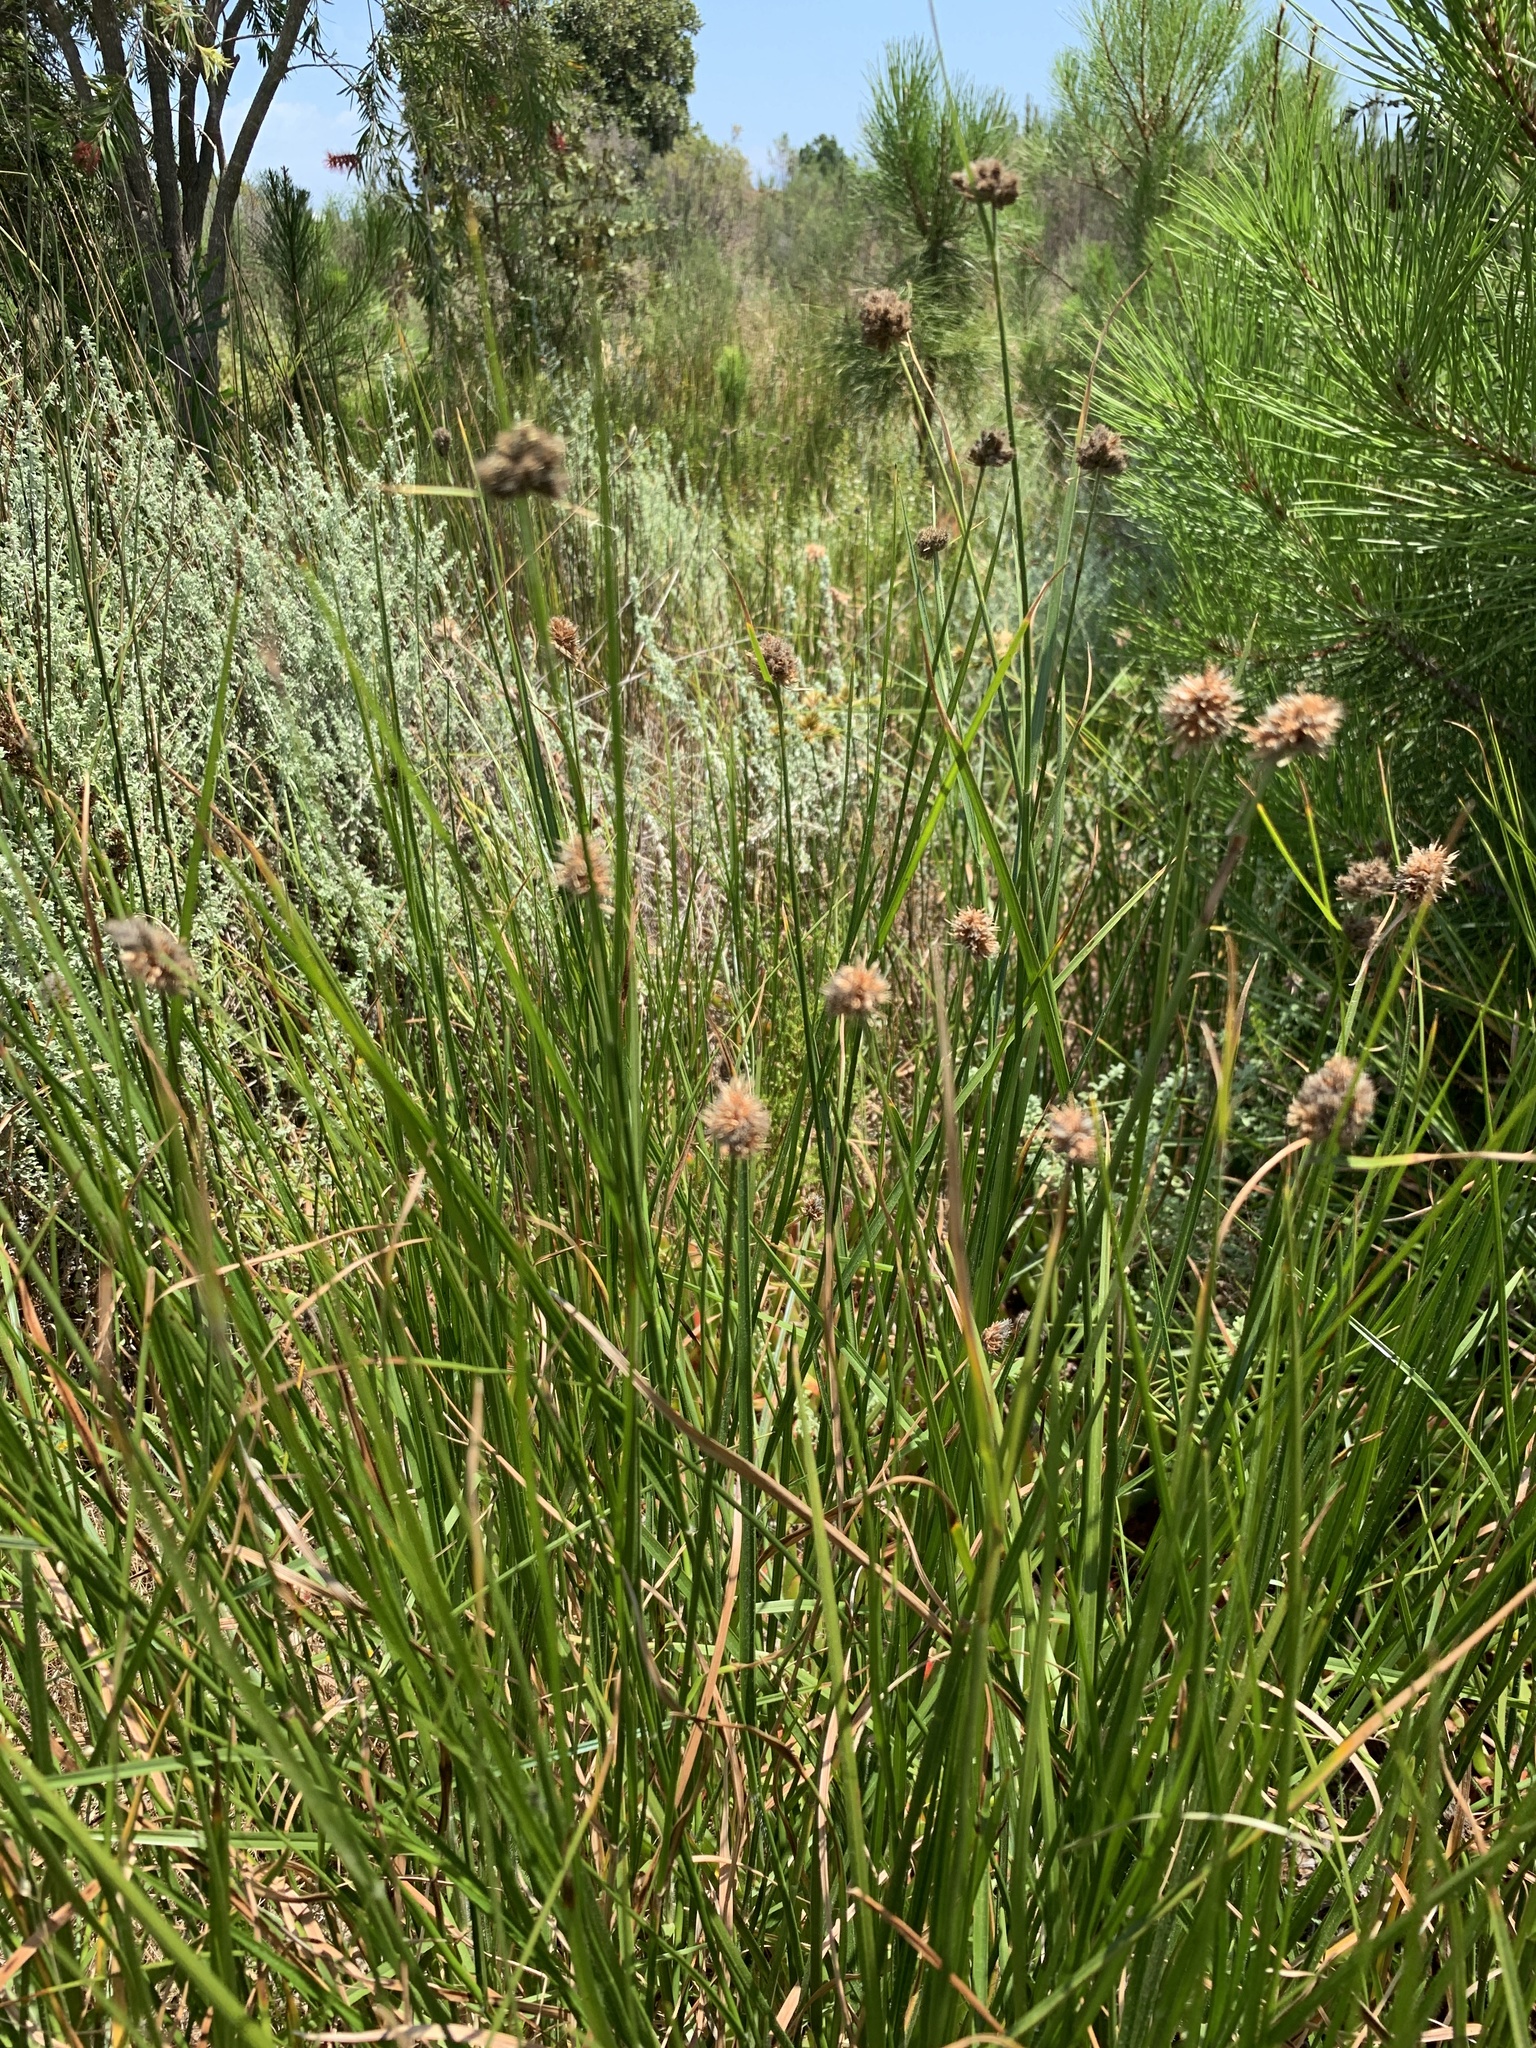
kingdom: Plantae
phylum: Tracheophyta
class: Liliopsida
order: Poales
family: Cyperaceae
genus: Fuirena
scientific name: Fuirena hirsuta
